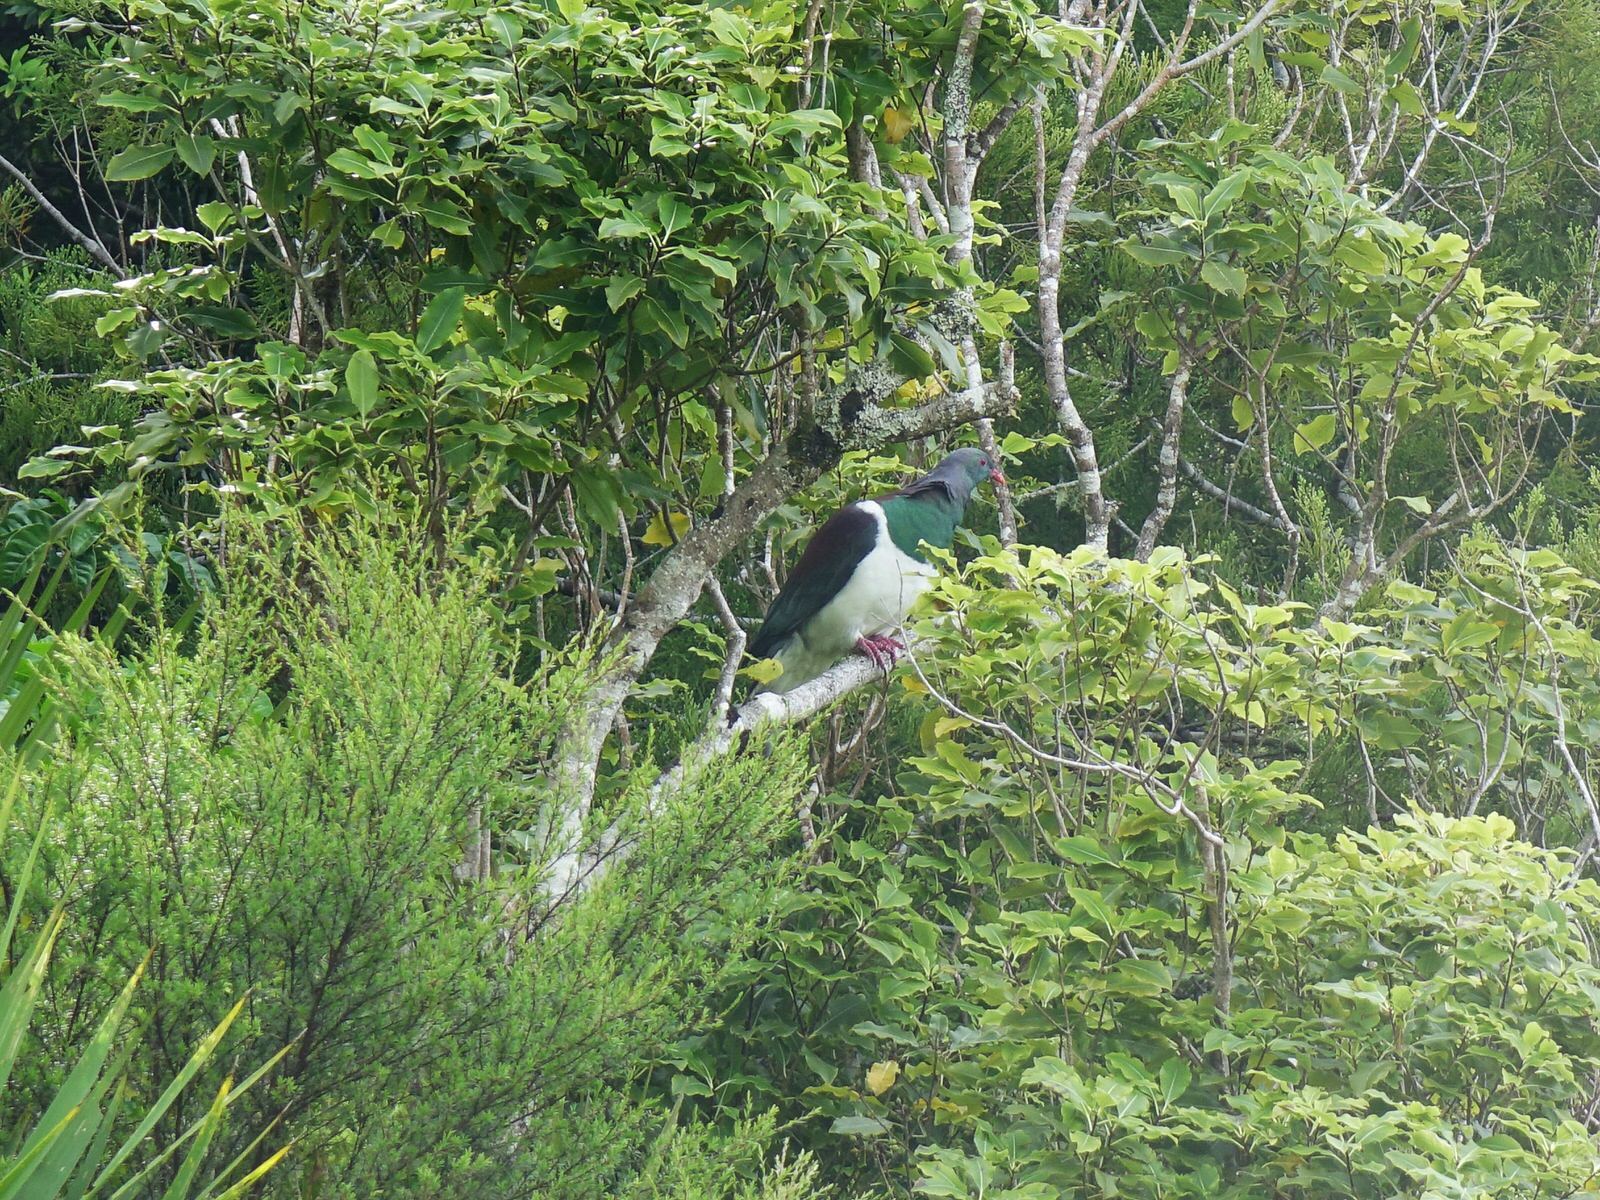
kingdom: Animalia
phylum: Chordata
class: Aves
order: Columbiformes
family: Columbidae
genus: Hemiphaga
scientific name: Hemiphaga novaeseelandiae
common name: New zealand pigeon
